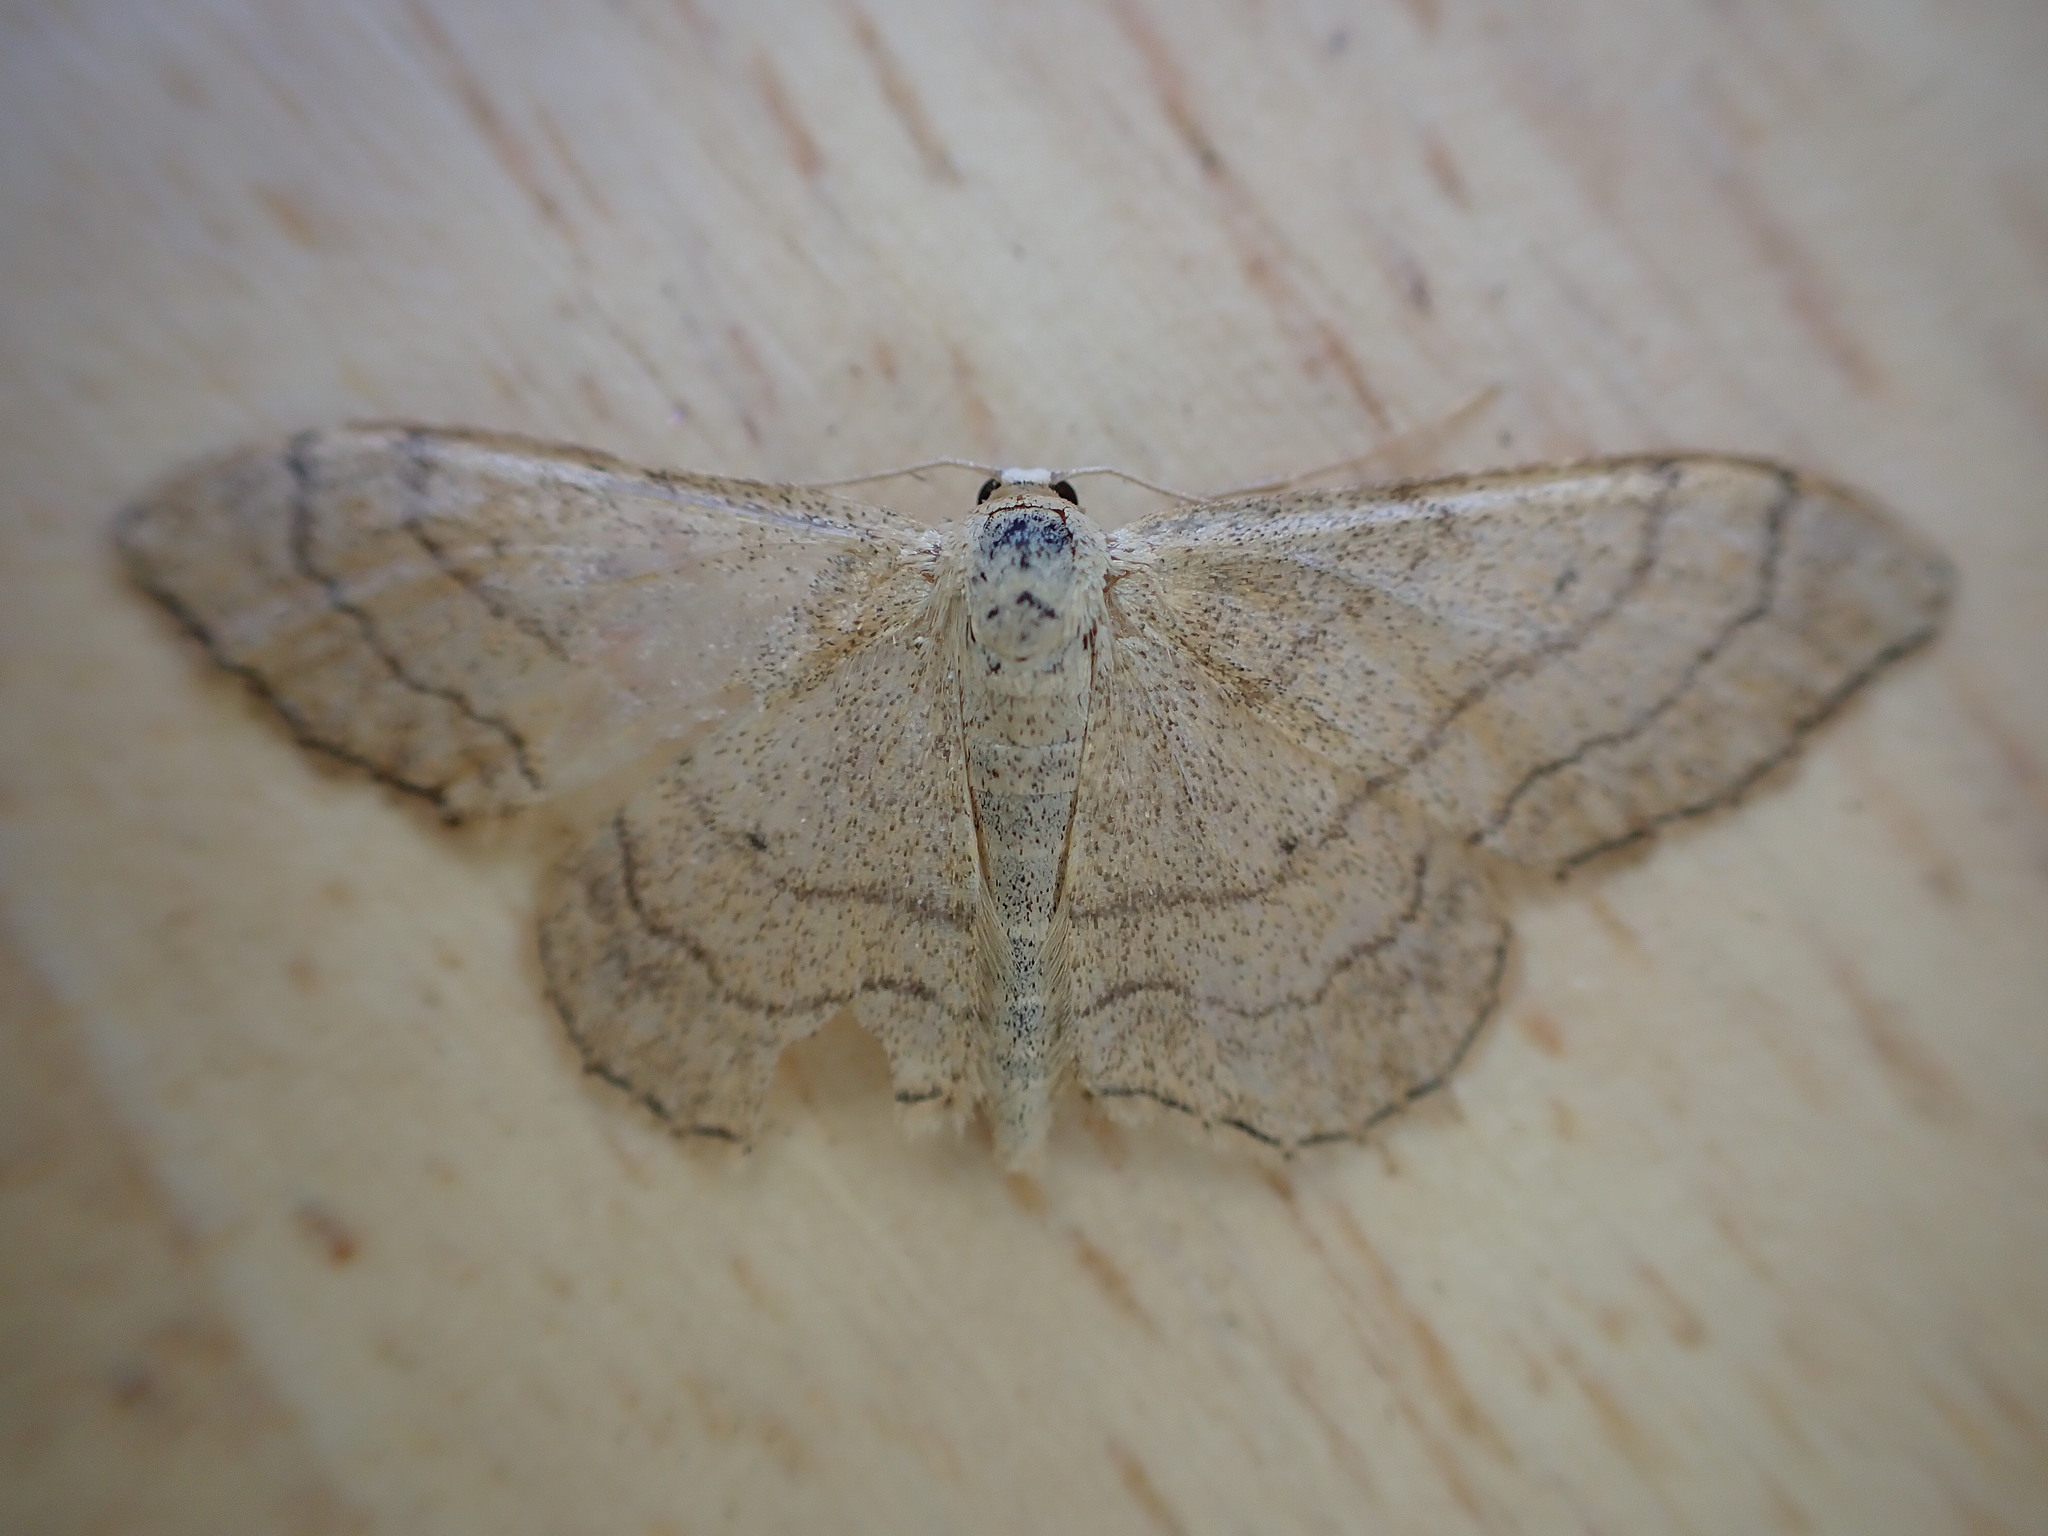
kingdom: Animalia
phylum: Arthropoda
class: Insecta
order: Lepidoptera
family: Geometridae
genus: Idaea
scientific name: Idaea aversata
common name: Riband wave
